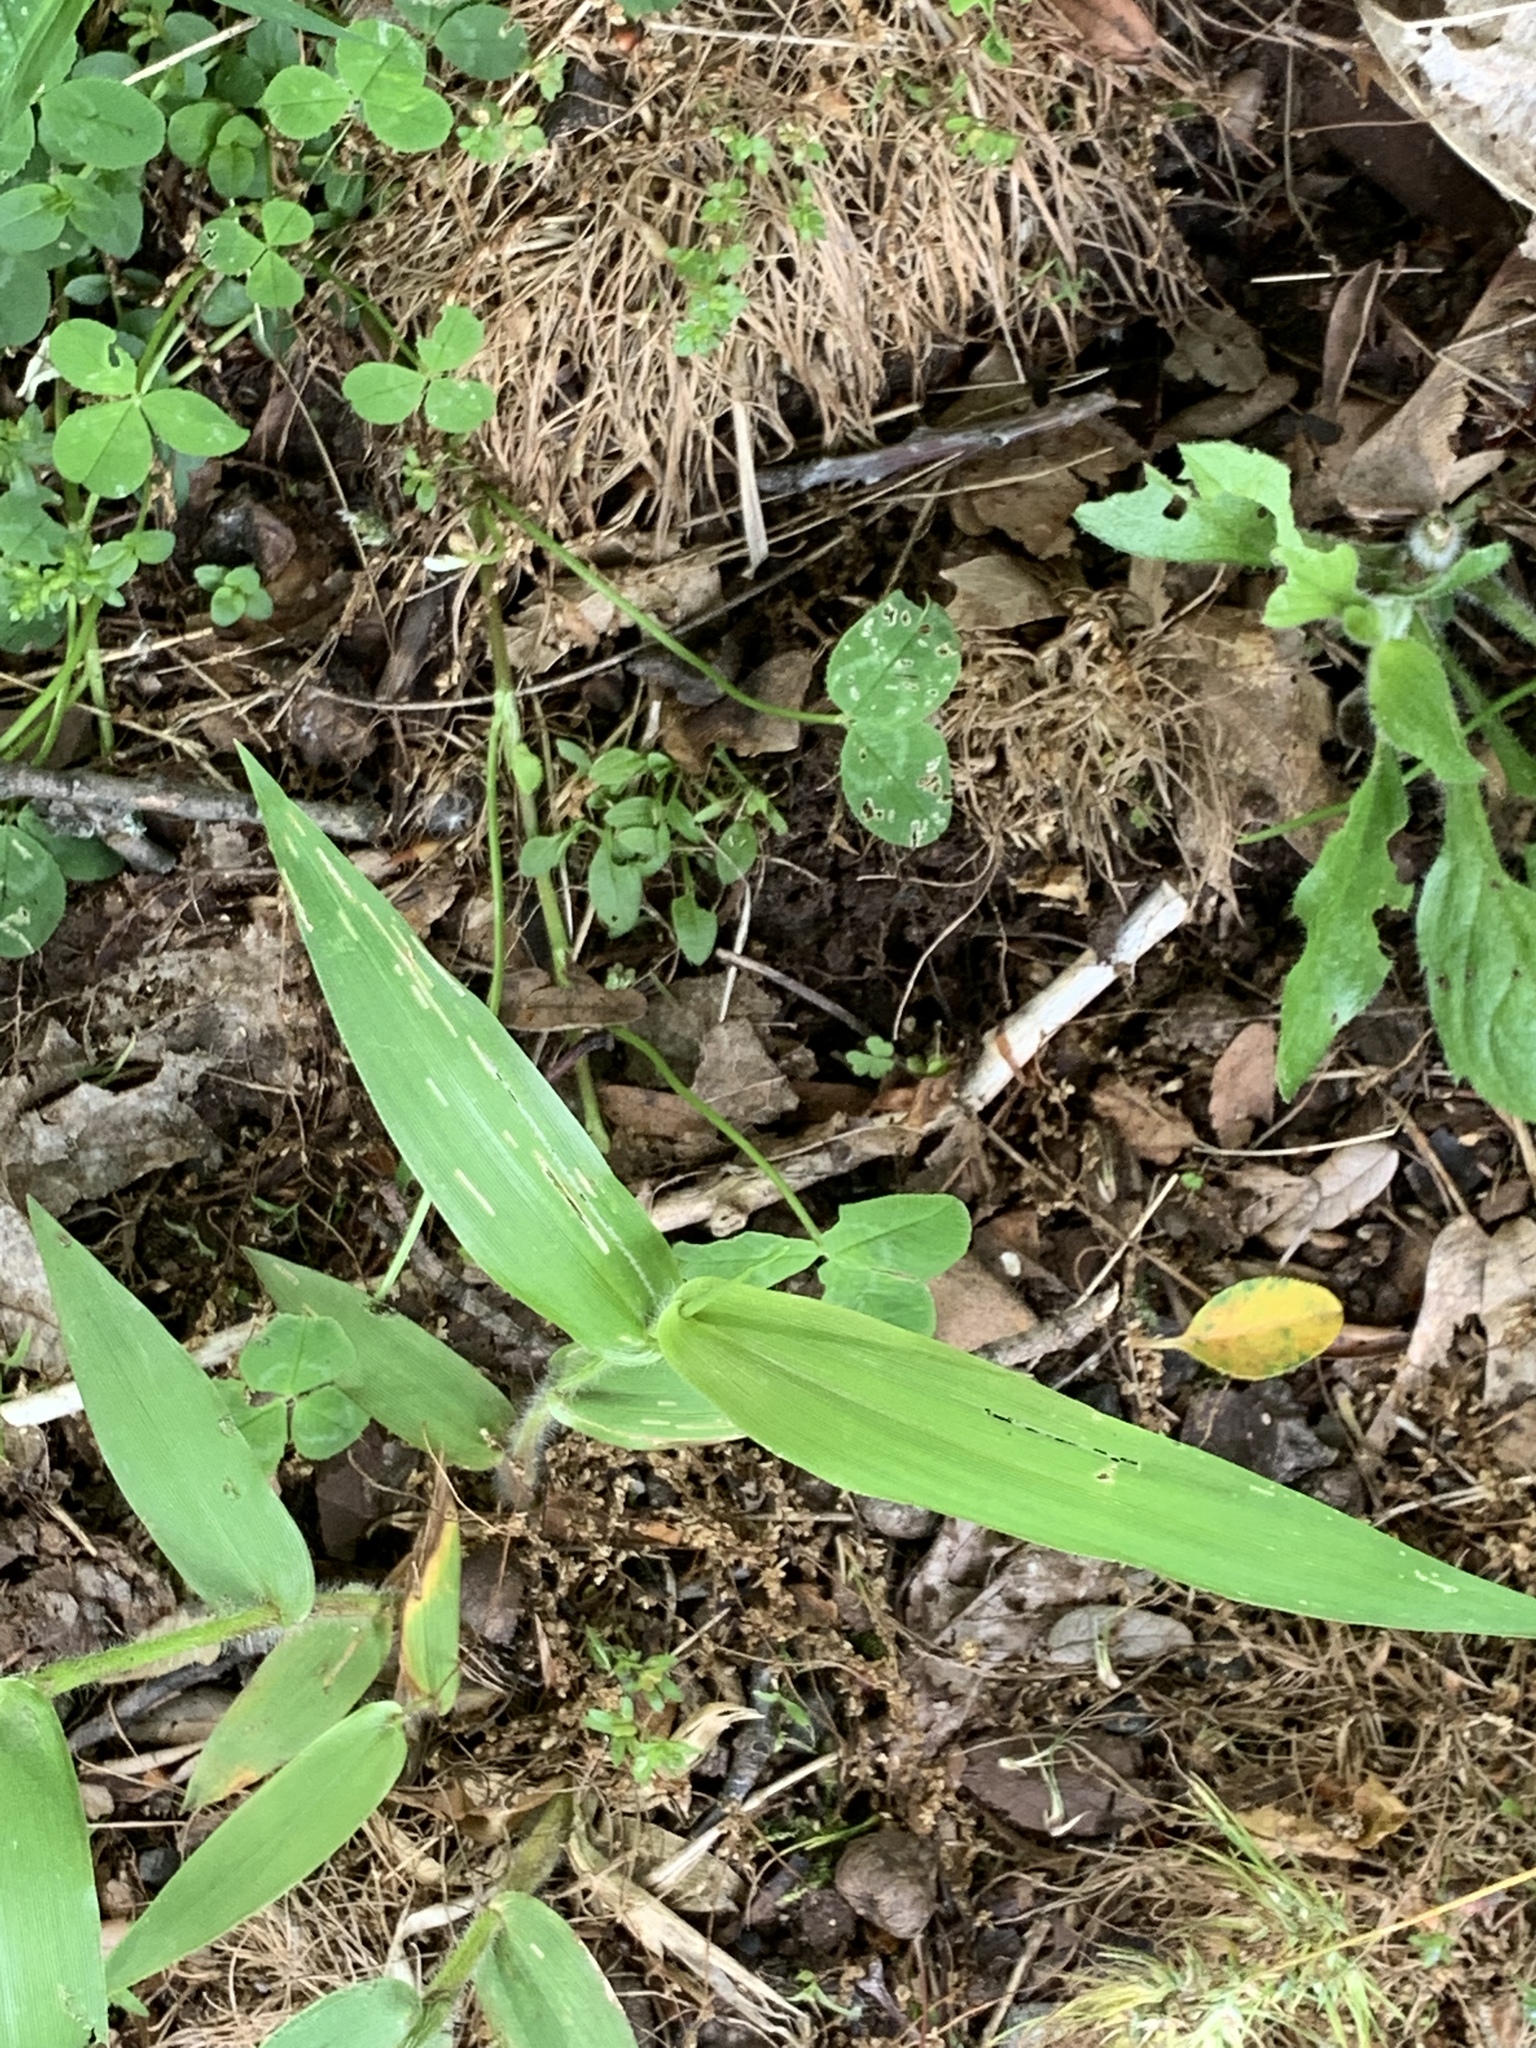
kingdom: Plantae
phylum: Tracheophyta
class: Liliopsida
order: Poales
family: Poaceae
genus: Dichanthelium
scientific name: Dichanthelium clandestinum
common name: Deer-tongue grass
